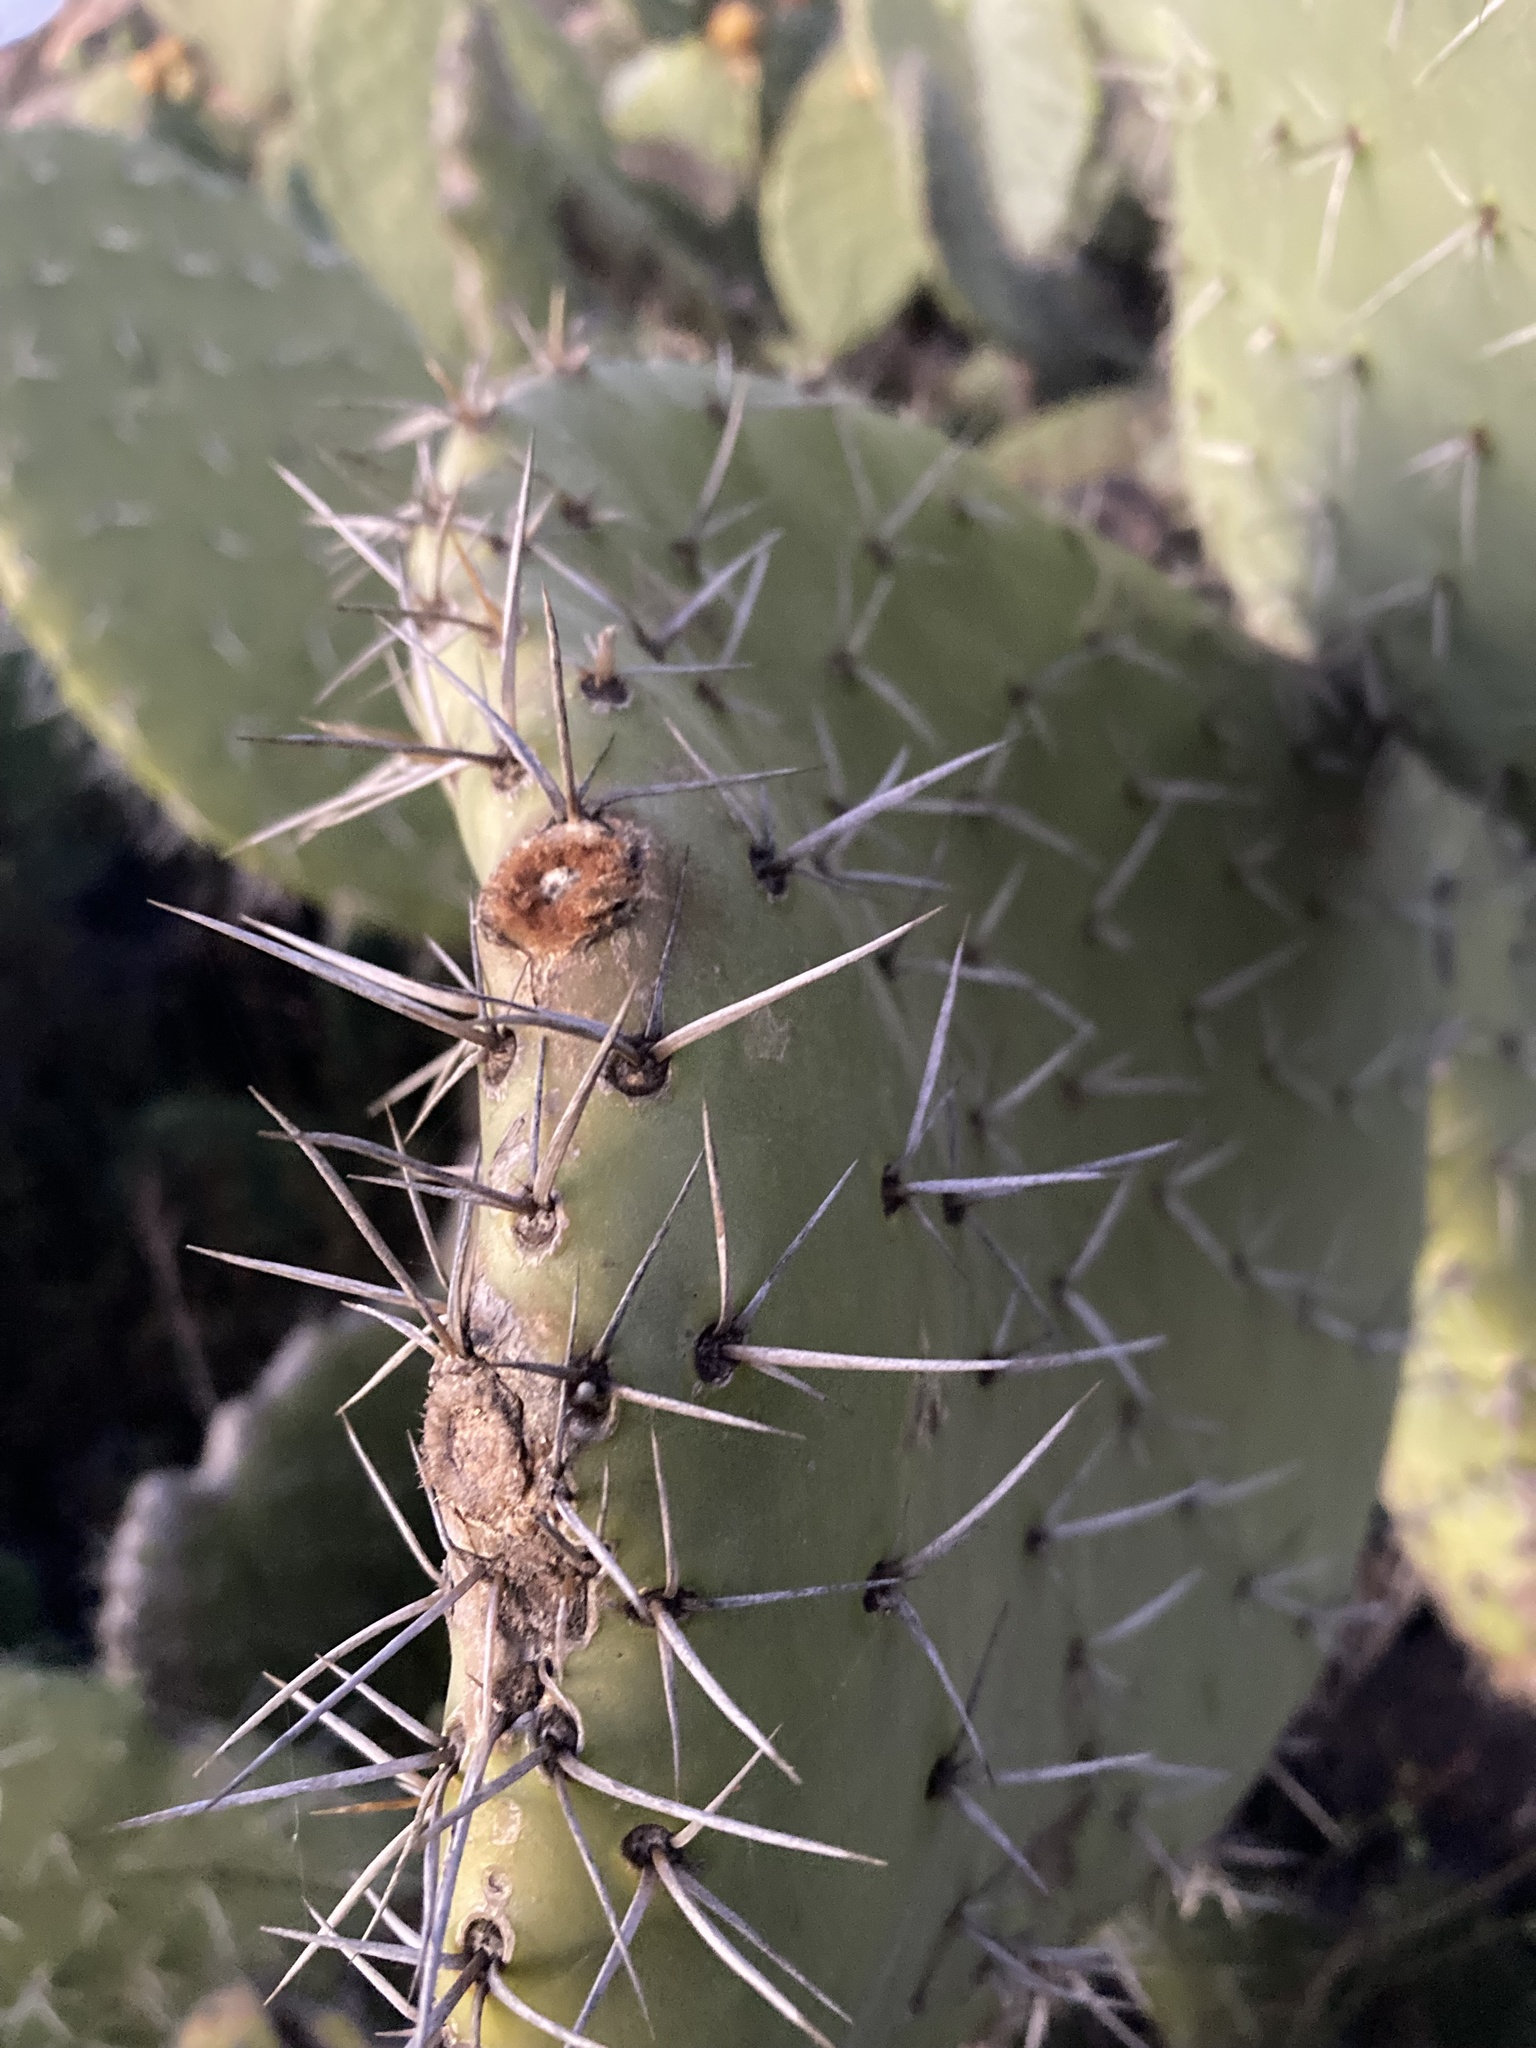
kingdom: Plantae
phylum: Tracheophyta
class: Magnoliopsida
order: Caryophyllales
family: Cactaceae
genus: Opuntia
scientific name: Opuntia ficus-indica
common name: Barbary fig
